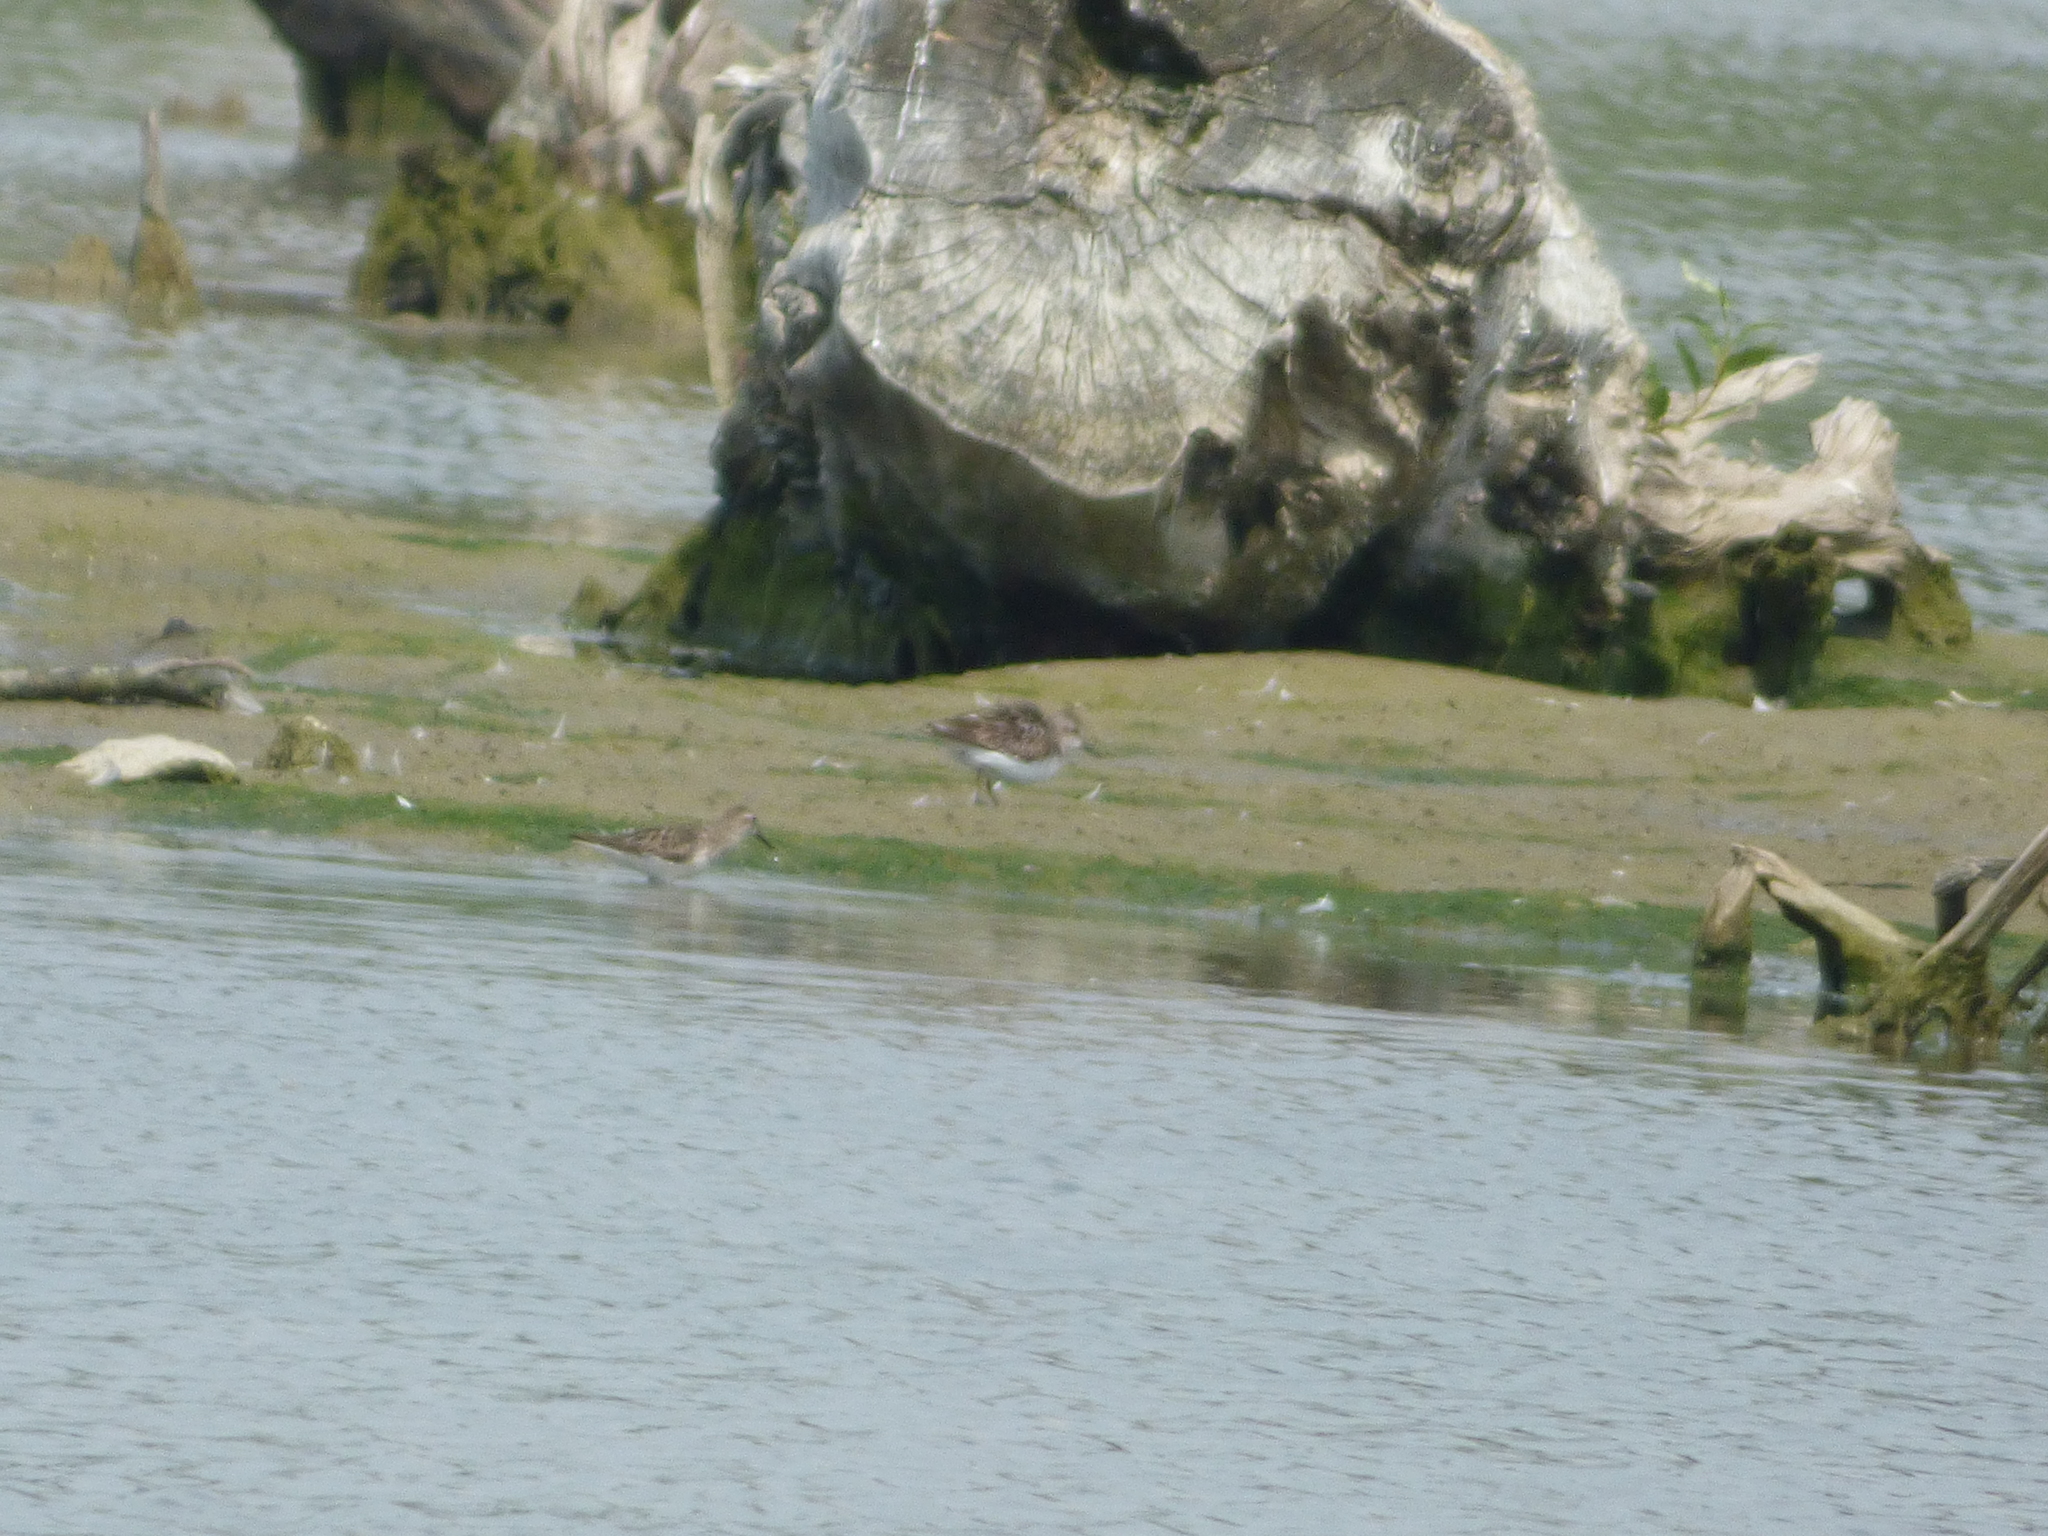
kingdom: Animalia
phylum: Chordata
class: Aves
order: Charadriiformes
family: Scolopacidae
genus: Calidris
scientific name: Calidris pusilla
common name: Semipalmated sandpiper
